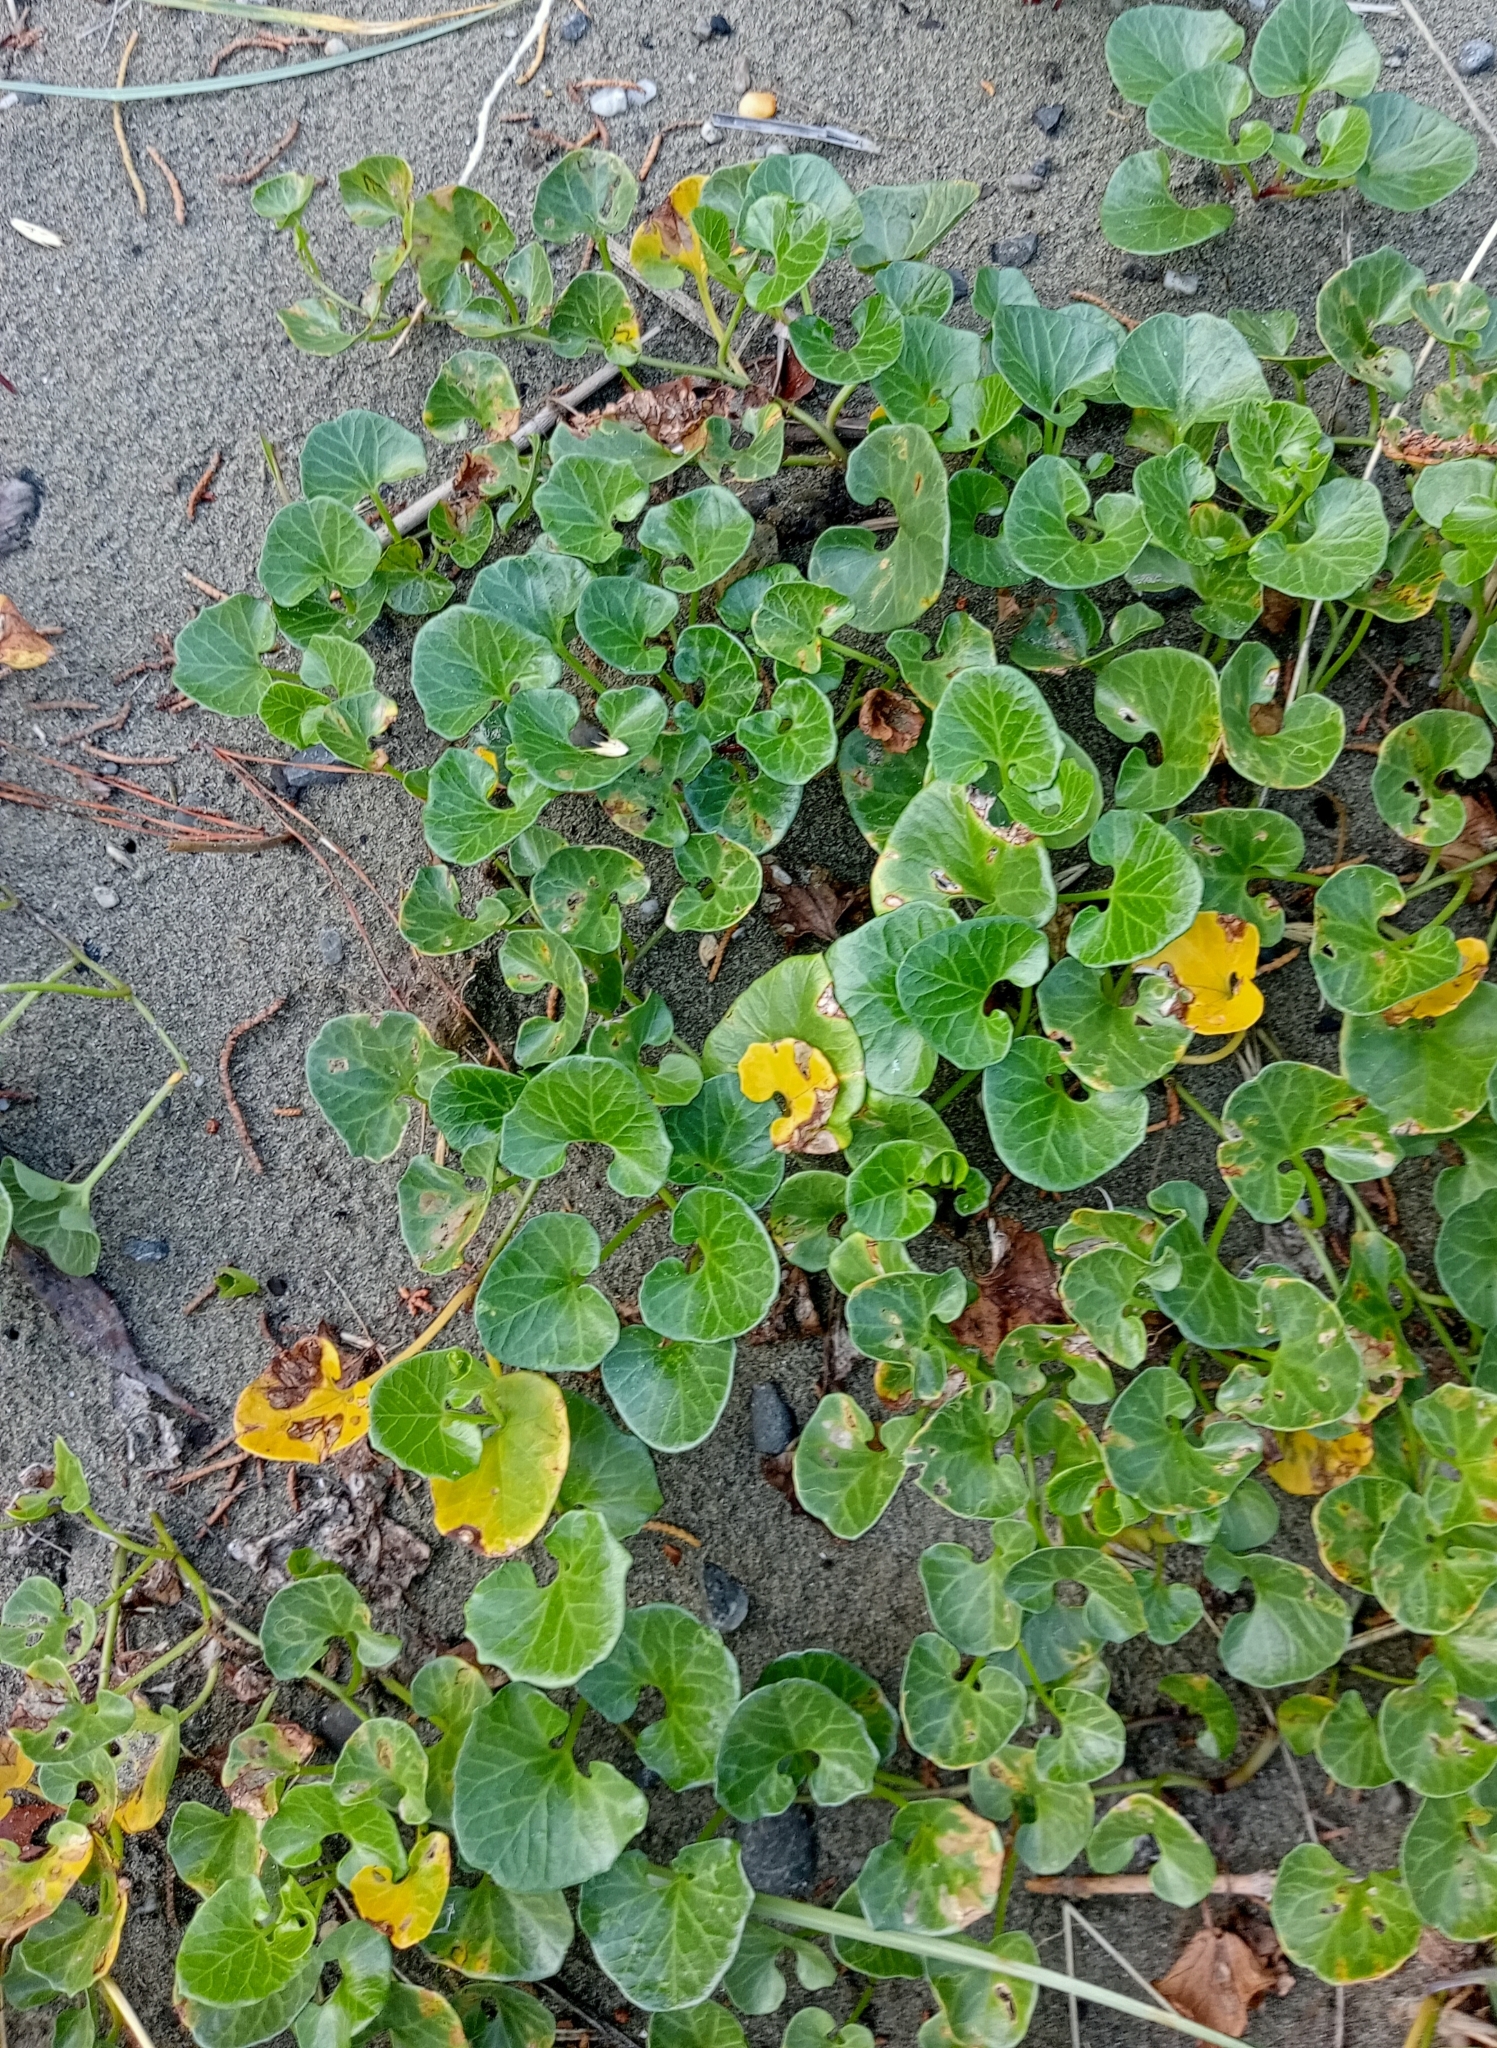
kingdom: Plantae
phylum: Tracheophyta
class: Magnoliopsida
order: Solanales
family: Convolvulaceae
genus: Calystegia
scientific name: Calystegia soldanella
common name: Sea bindweed
